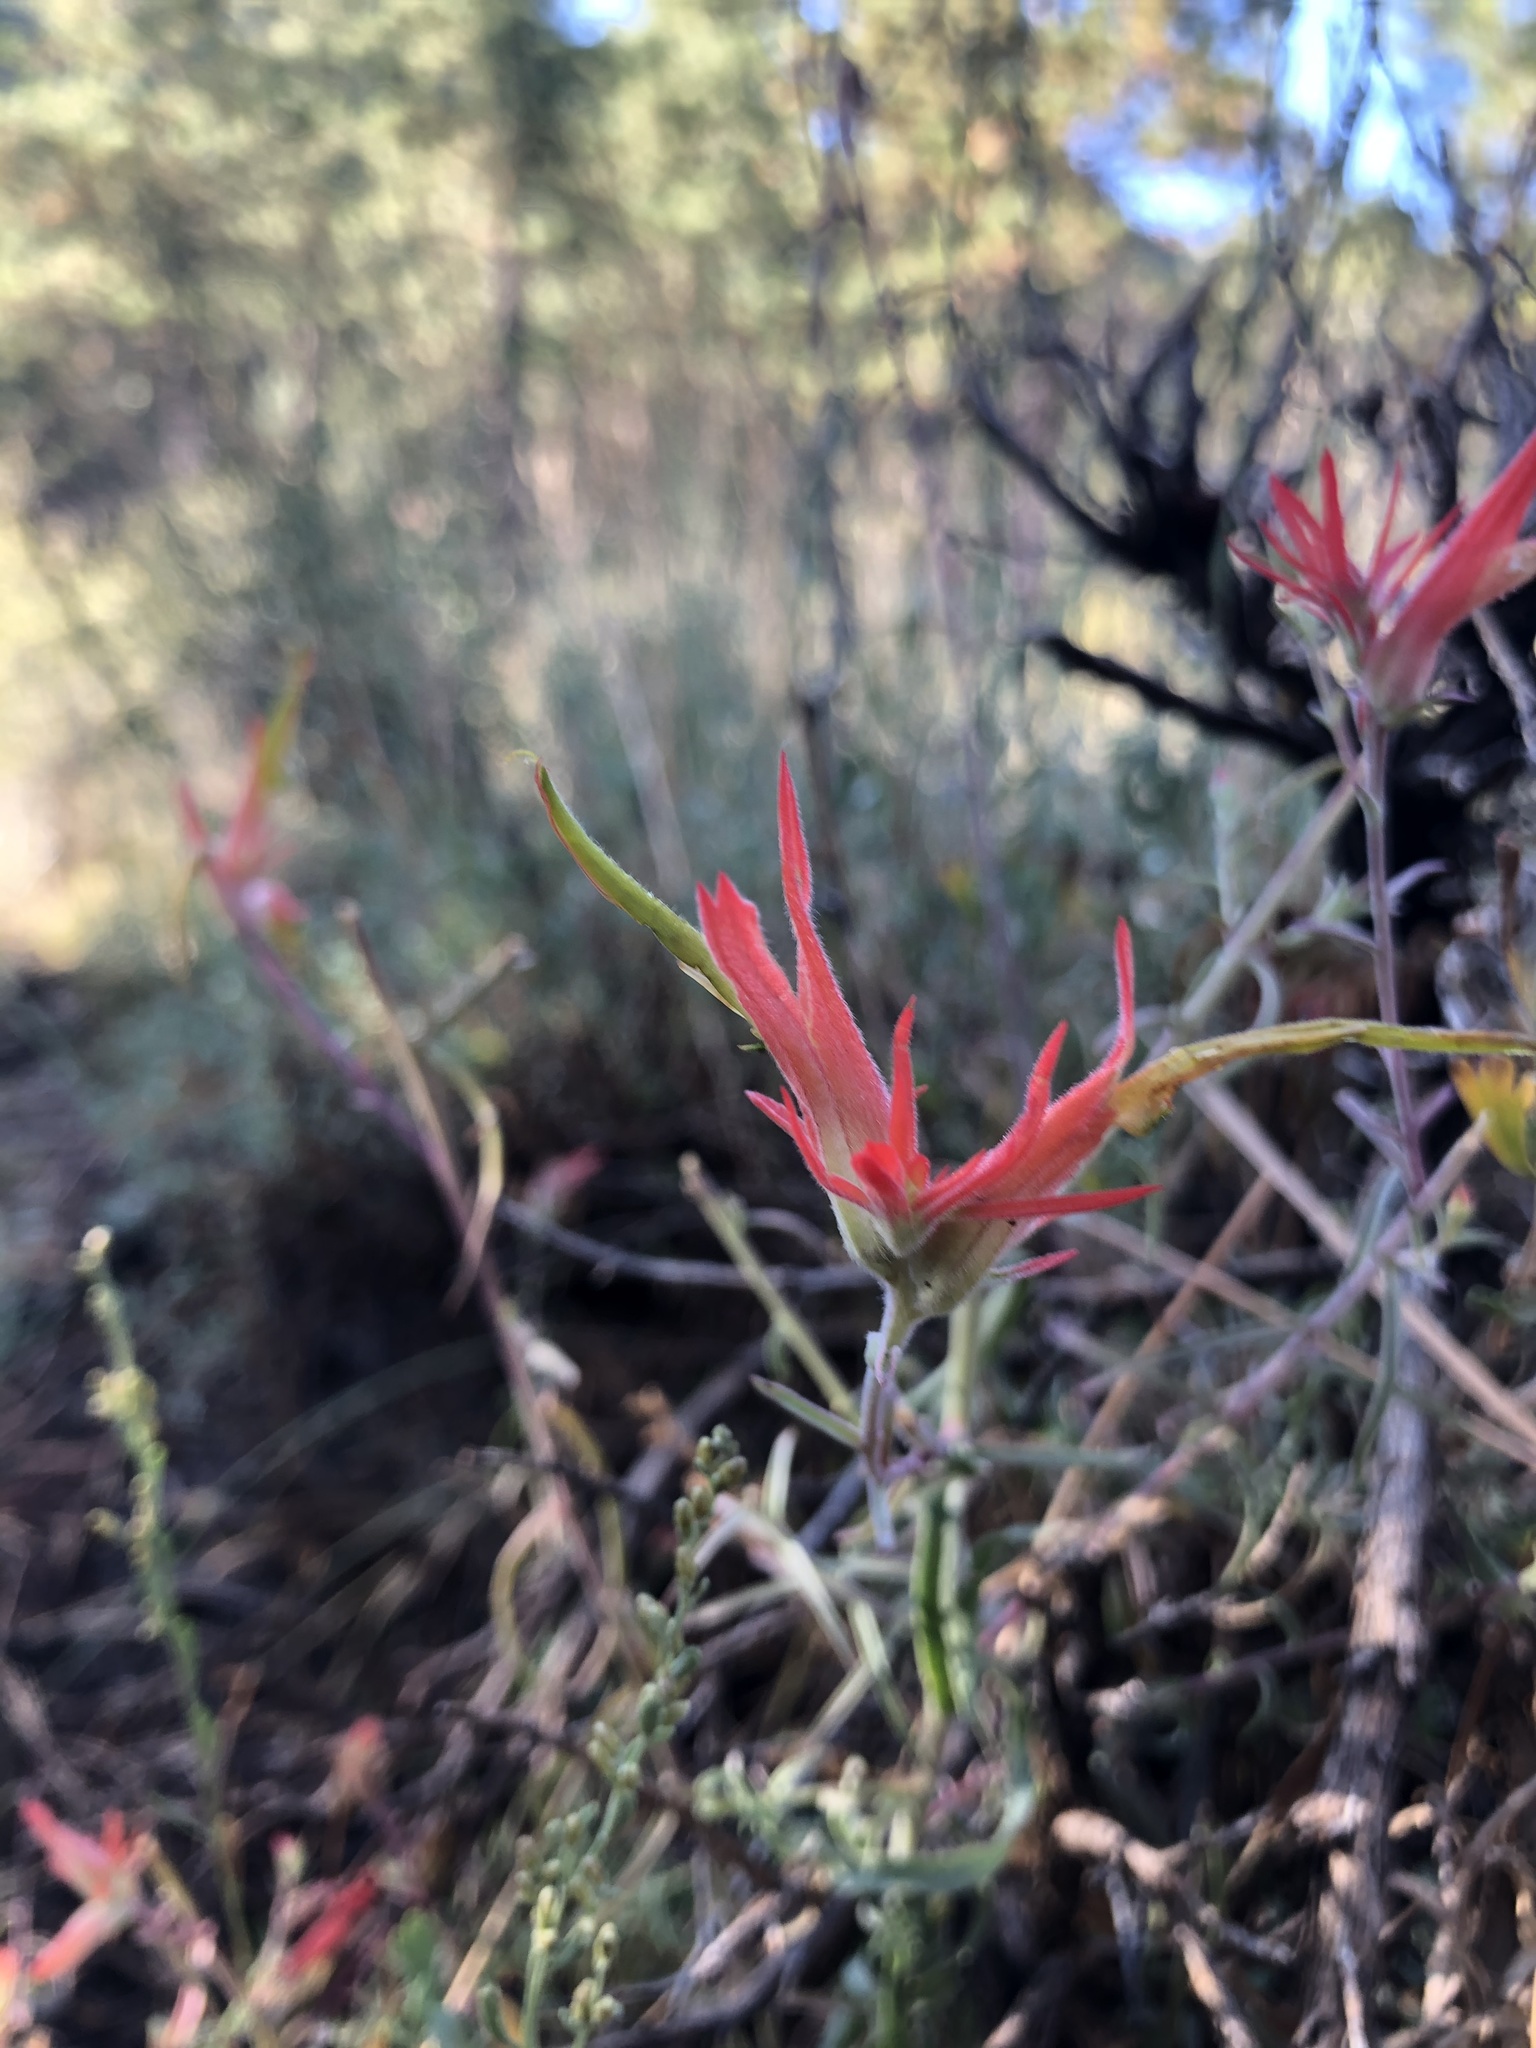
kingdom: Plantae
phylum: Tracheophyta
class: Magnoliopsida
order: Lamiales
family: Orobanchaceae
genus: Castilleja
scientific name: Castilleja linariifolia
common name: Wyoming paintbrush
